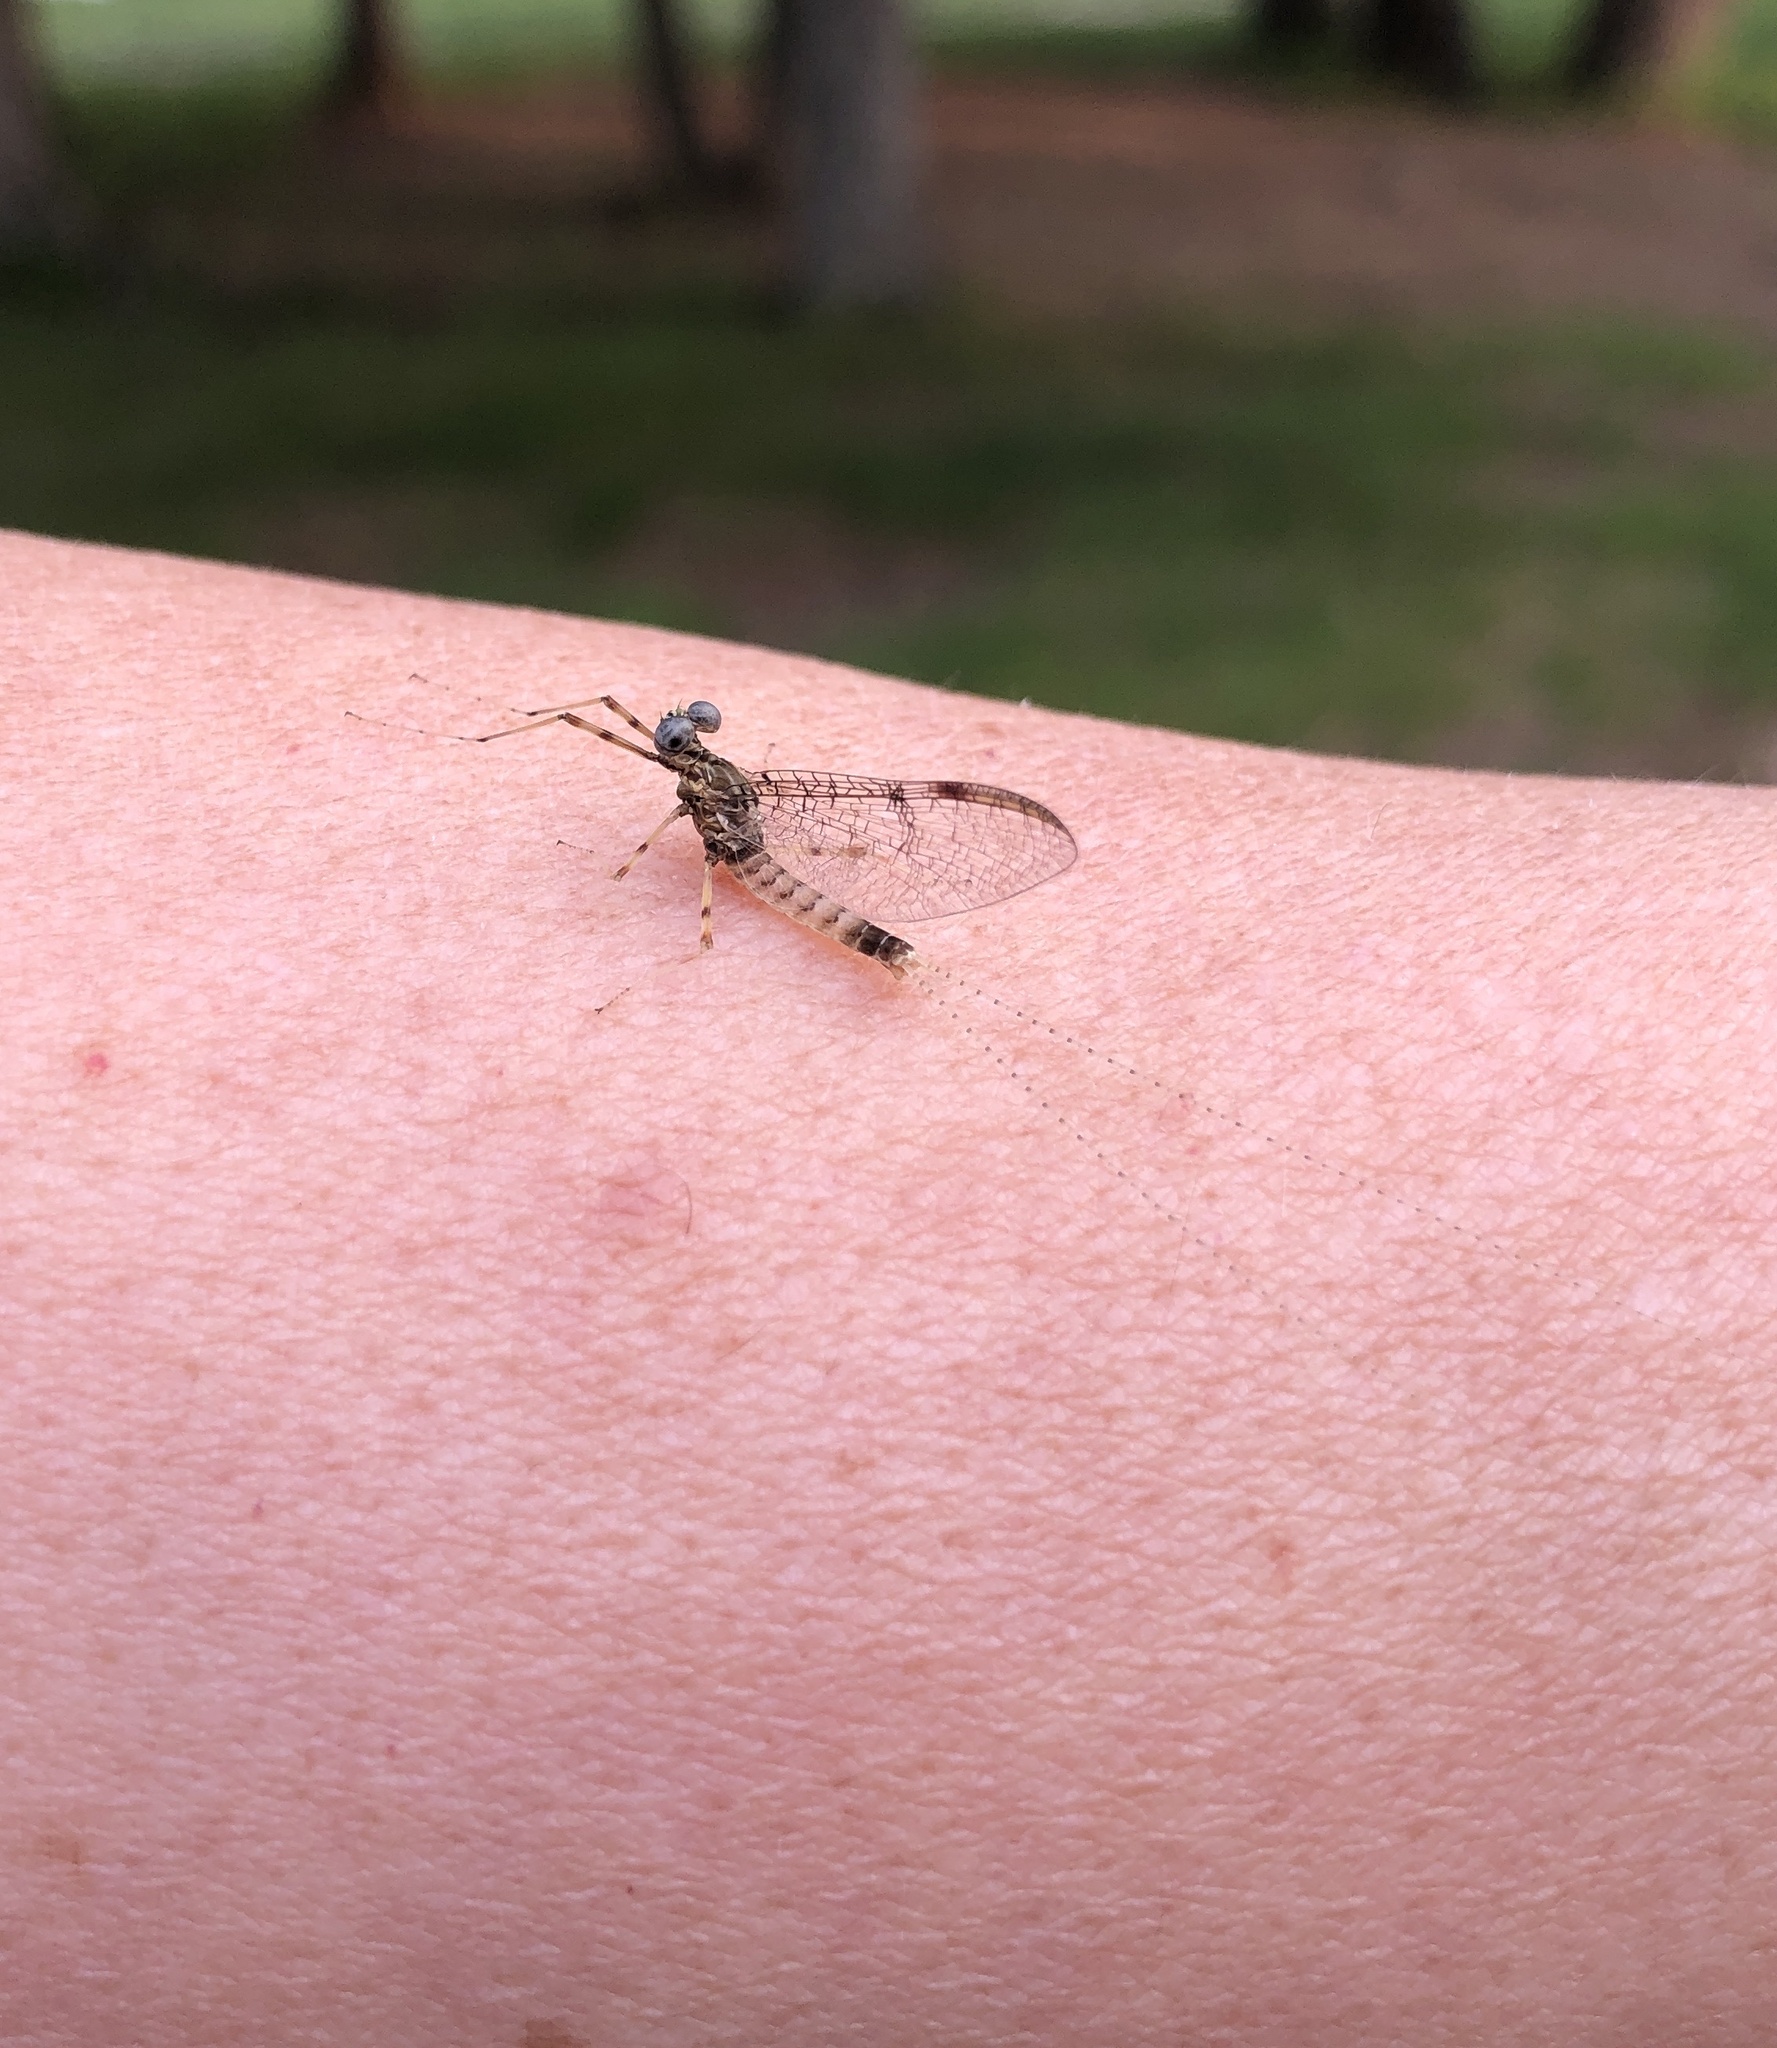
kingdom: Animalia
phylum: Arthropoda
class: Insecta
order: Ephemeroptera
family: Heptageniidae
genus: Stenonema
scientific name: Stenonema femoratum
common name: Dark cahill
